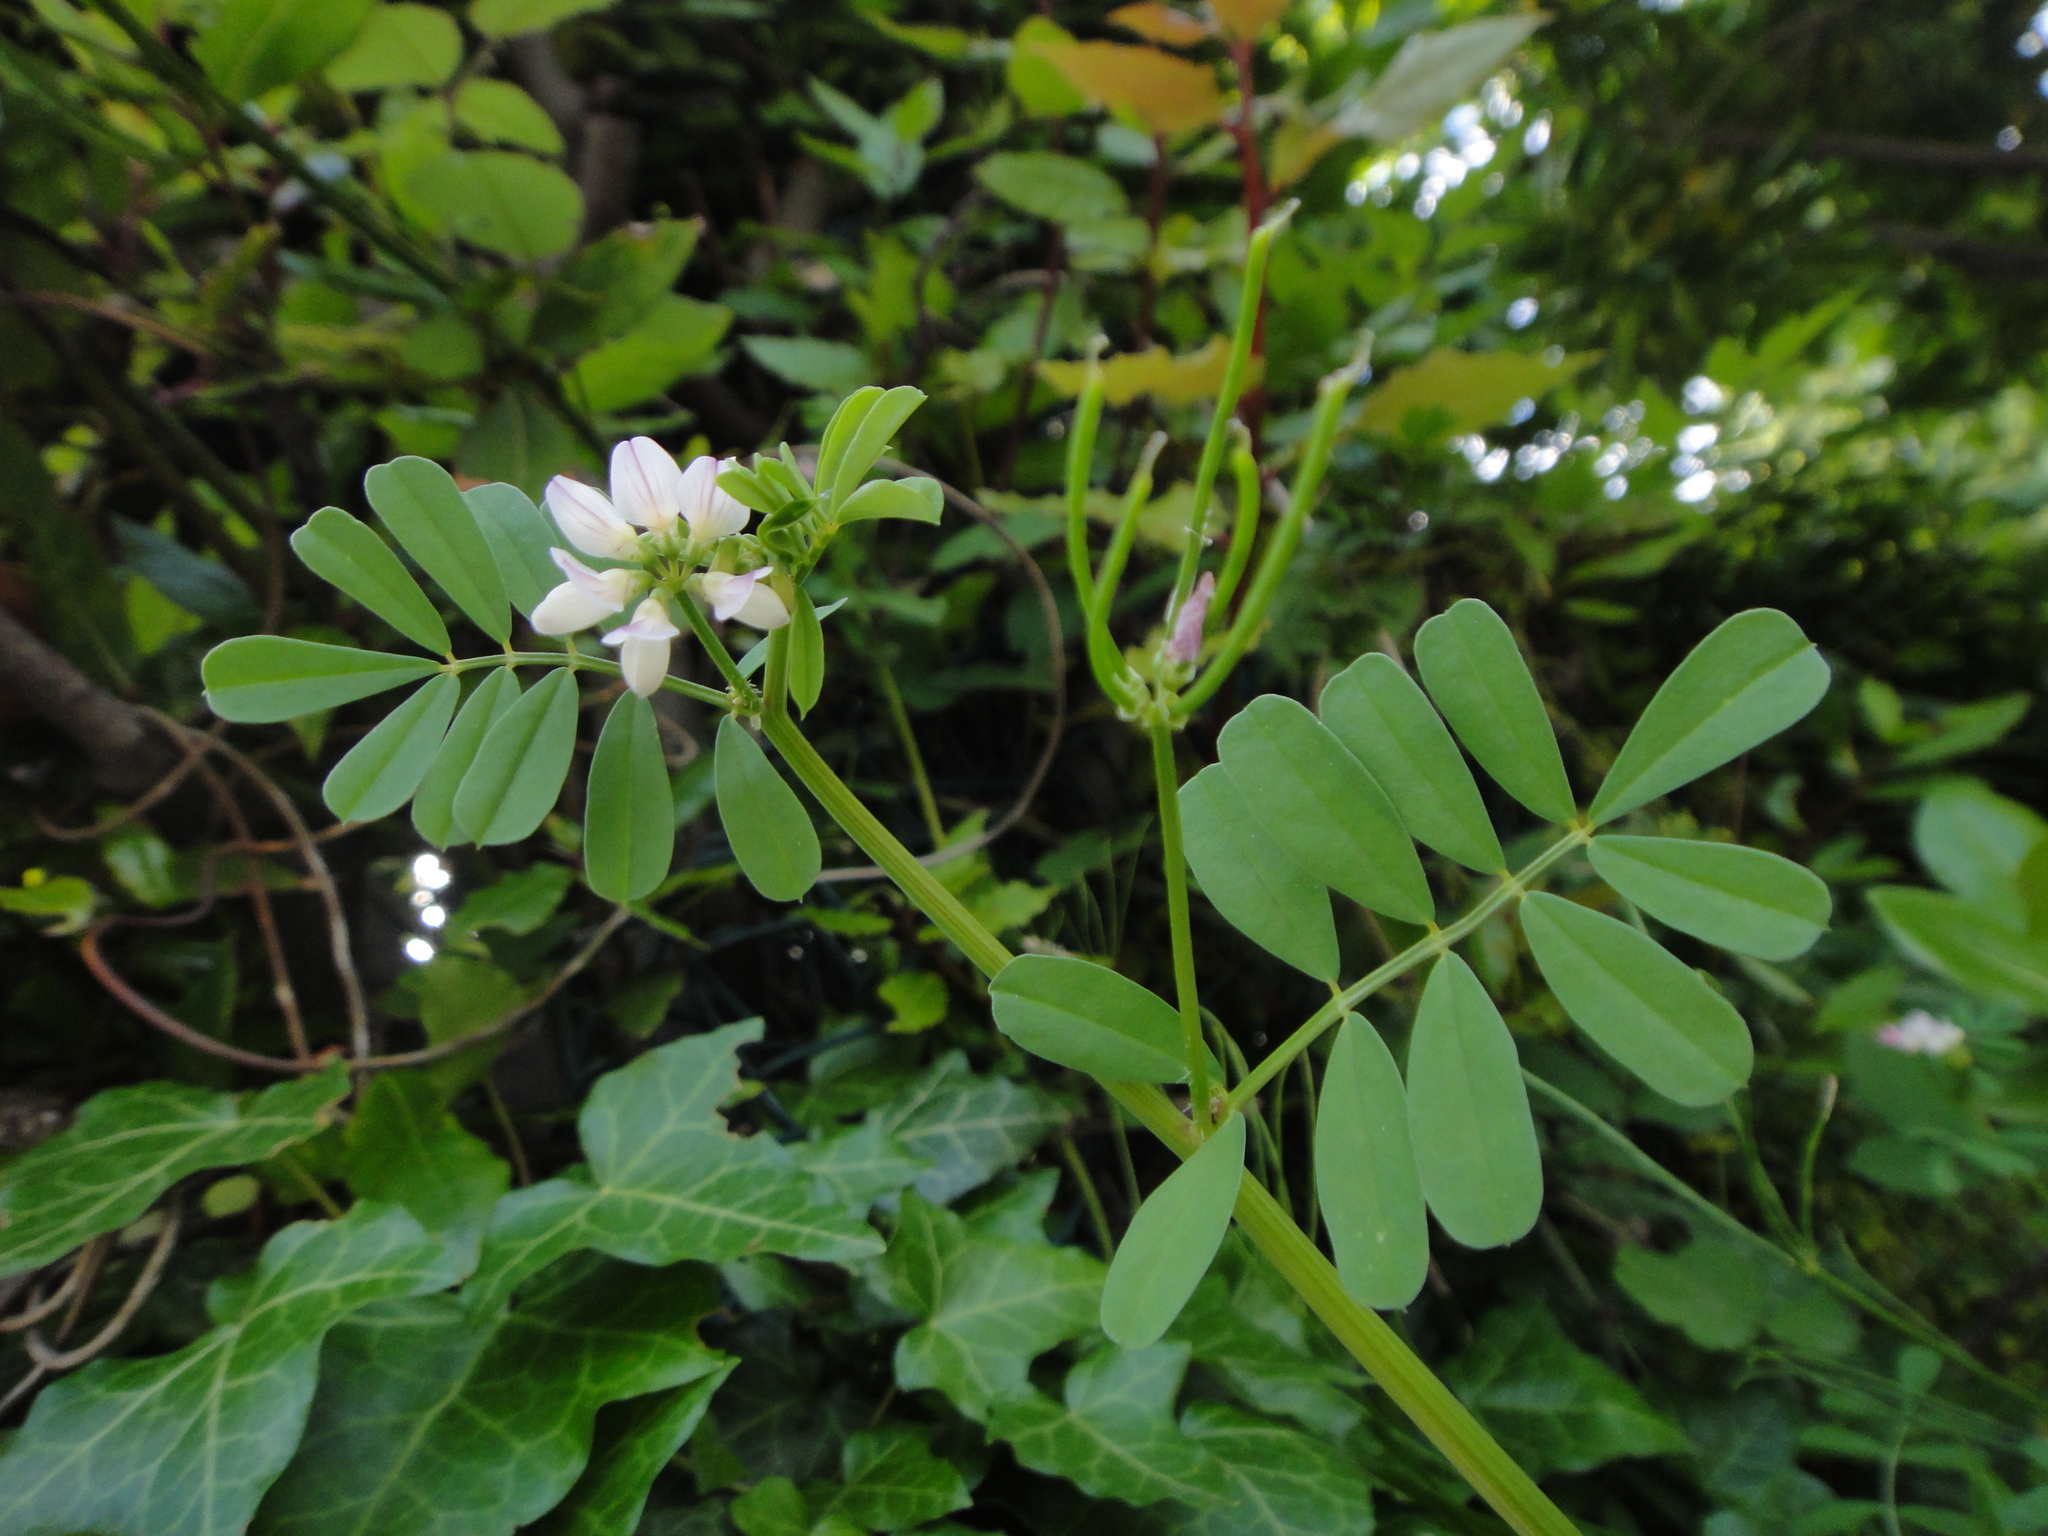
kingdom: Plantae
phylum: Tracheophyta
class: Magnoliopsida
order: Fabales
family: Fabaceae
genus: Coronilla
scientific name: Coronilla cretica
